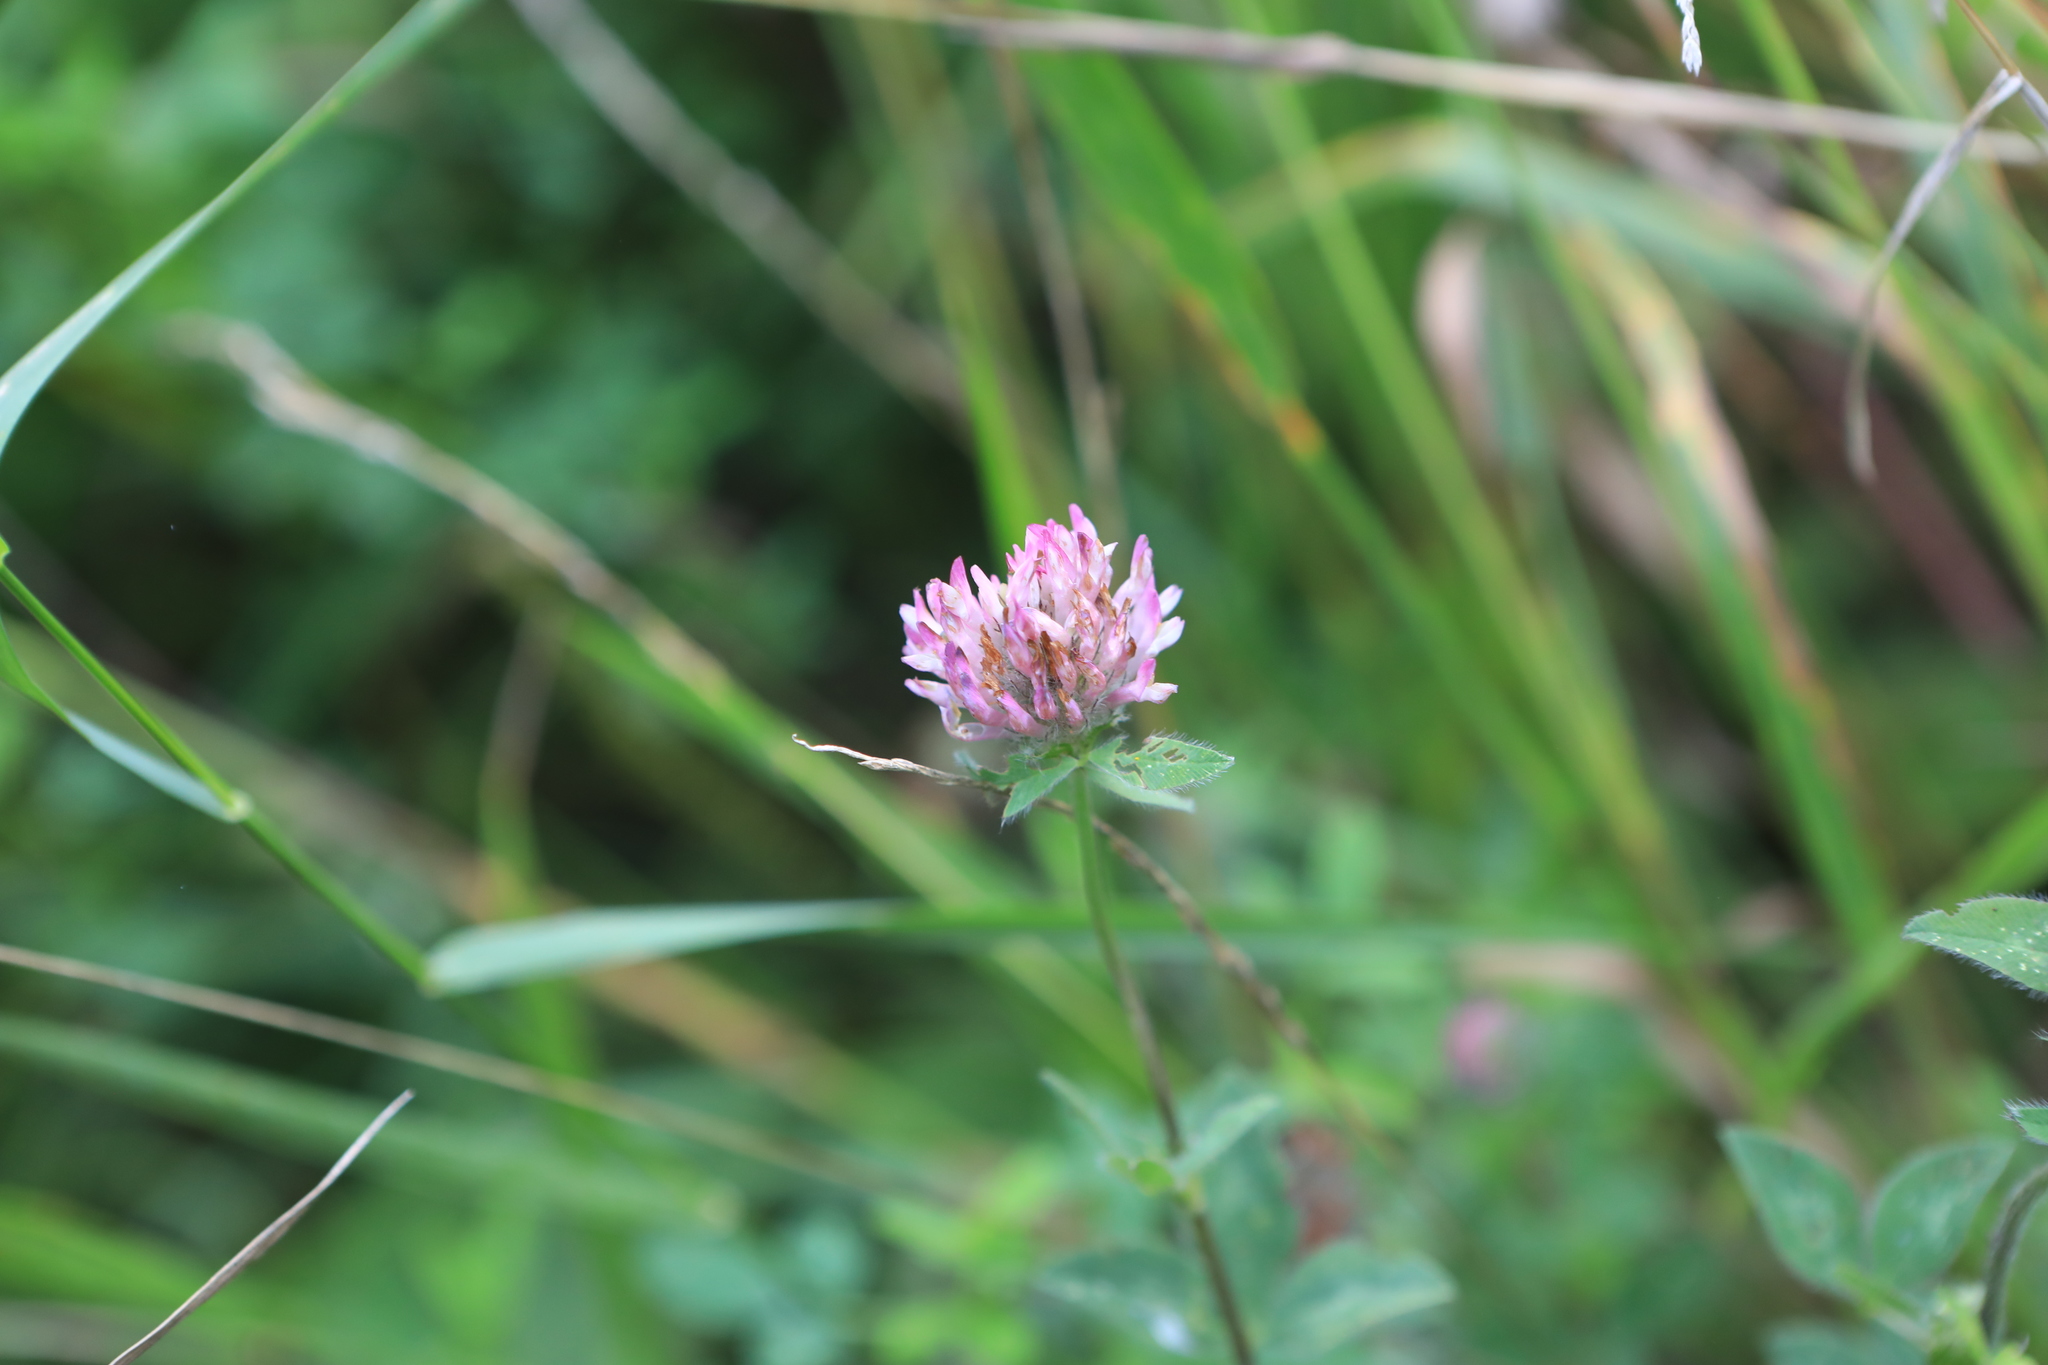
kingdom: Plantae
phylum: Tracheophyta
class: Magnoliopsida
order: Fabales
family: Fabaceae
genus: Trifolium
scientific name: Trifolium pratense
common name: Red clover
